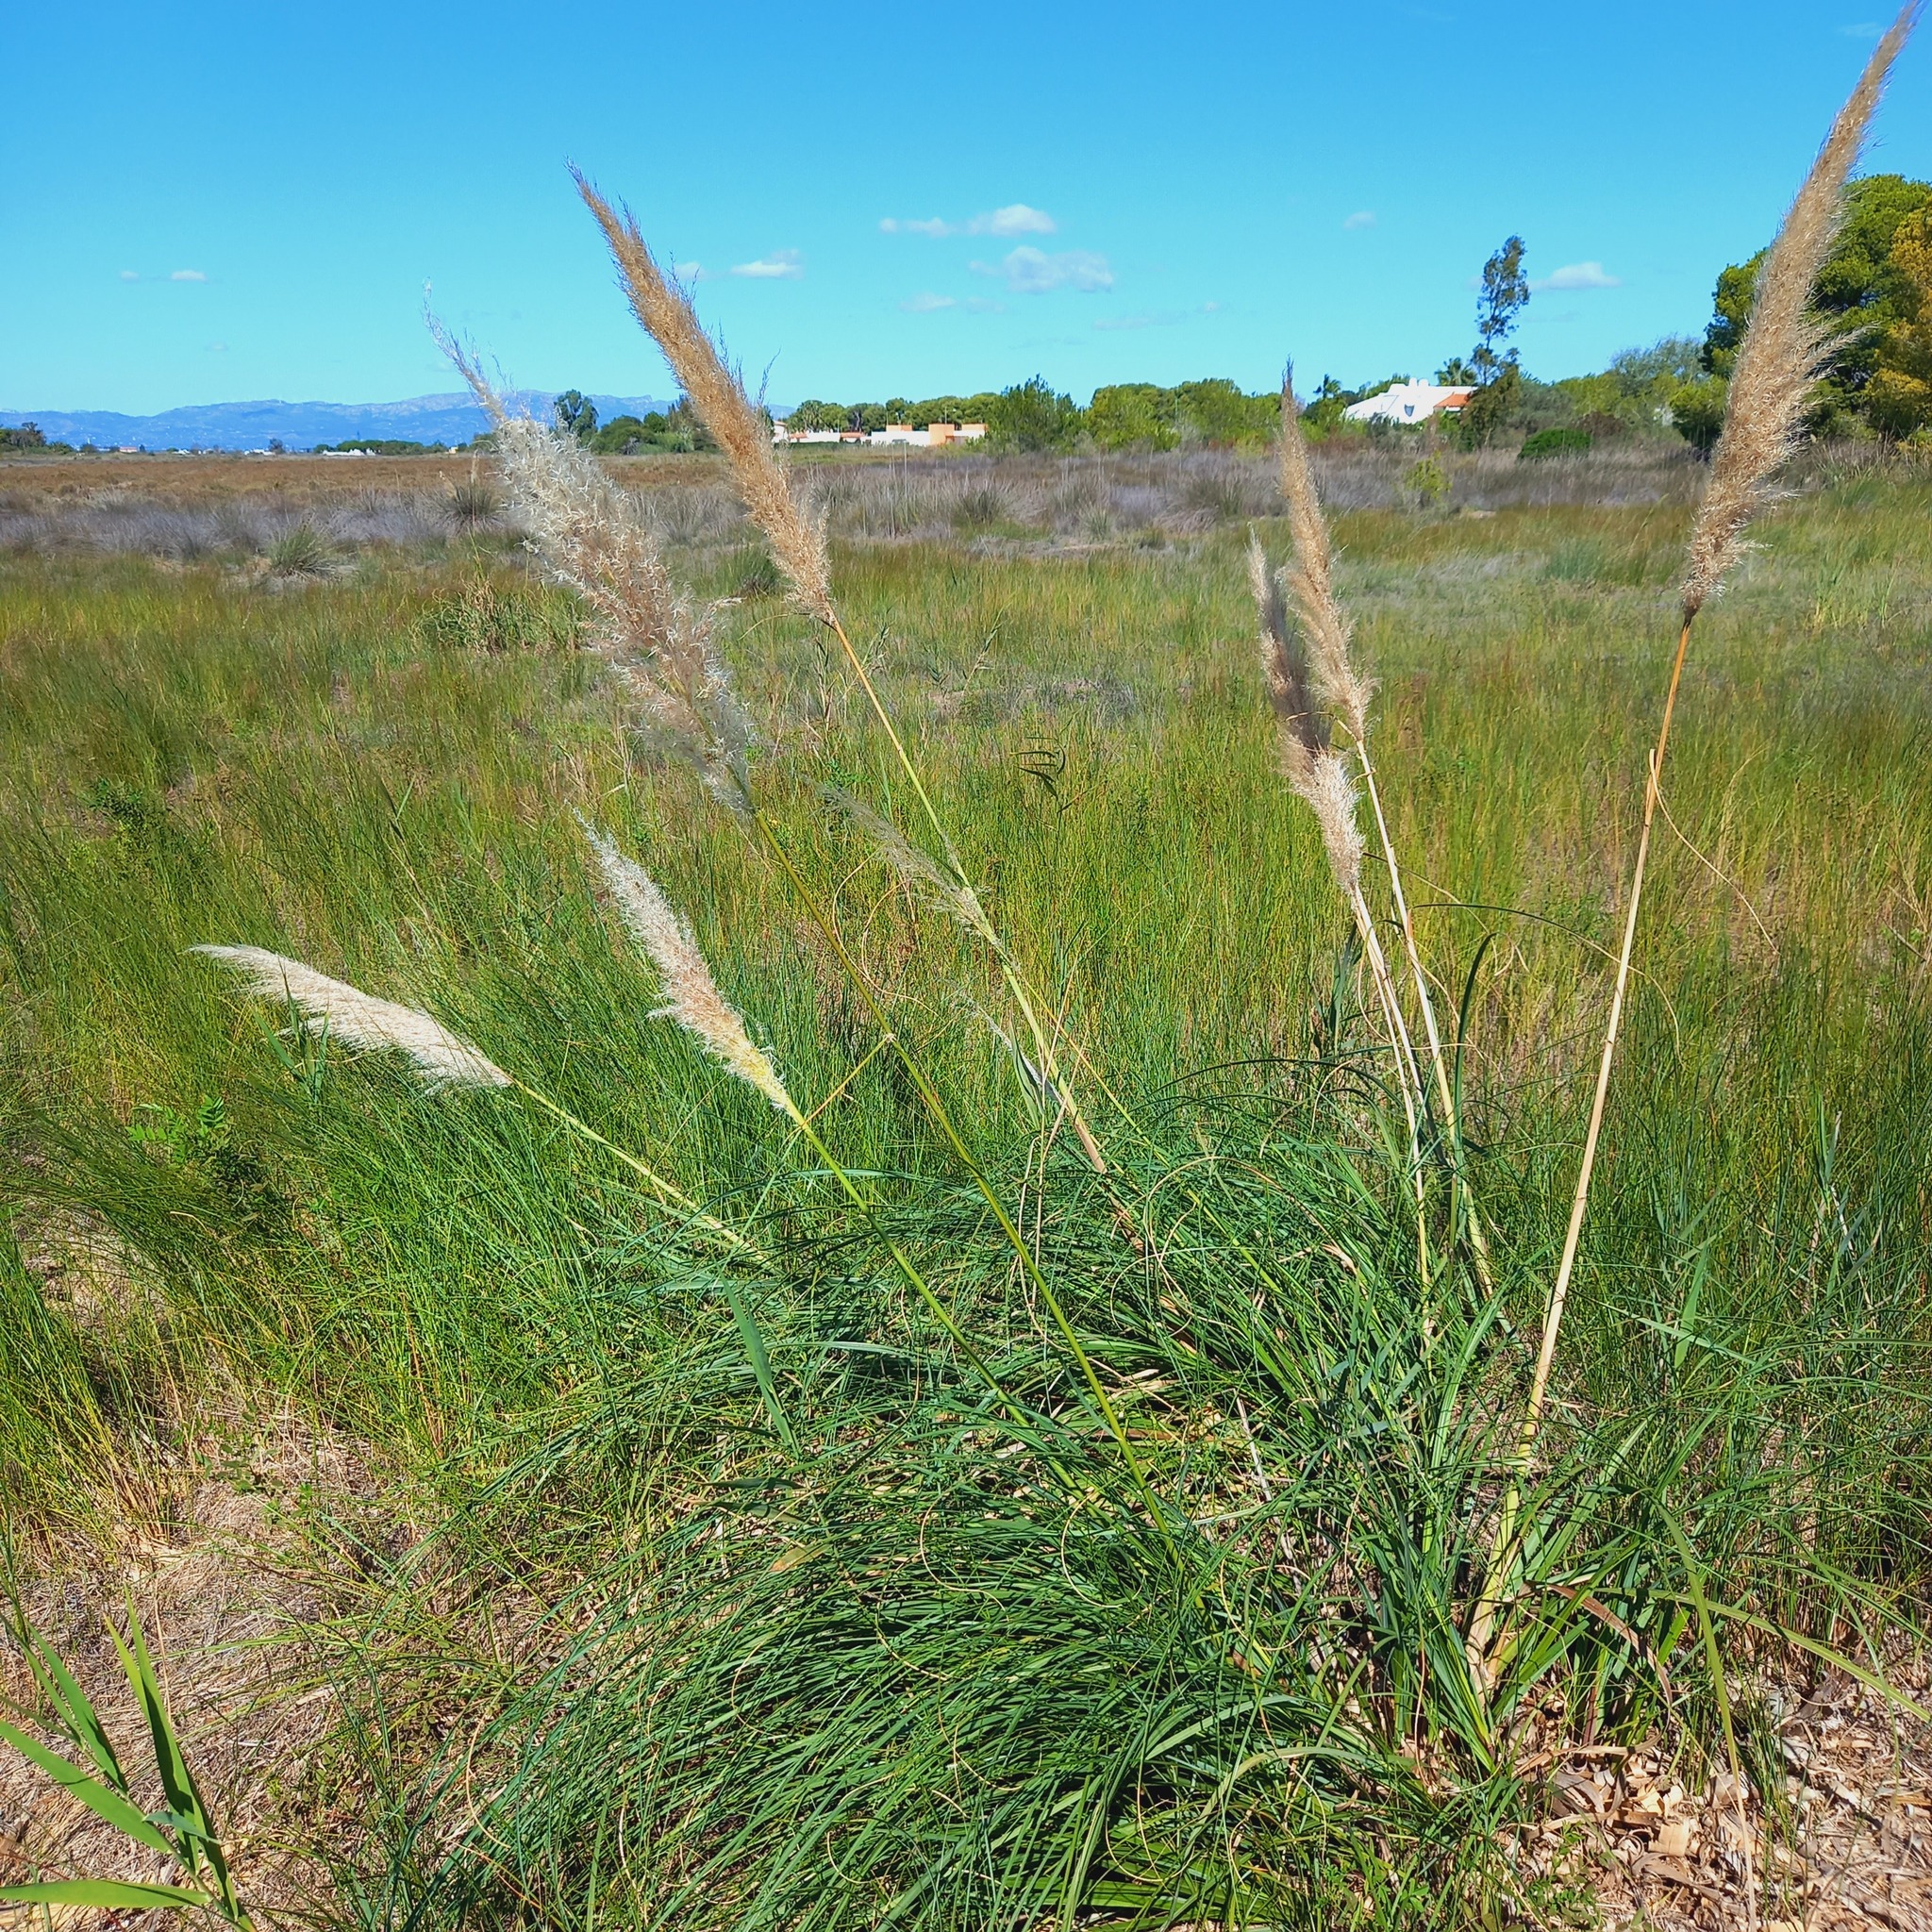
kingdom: Plantae
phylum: Tracheophyta
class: Liliopsida
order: Poales
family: Poaceae
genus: Cortaderia
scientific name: Cortaderia selloana
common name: Uruguayan pampas grass
